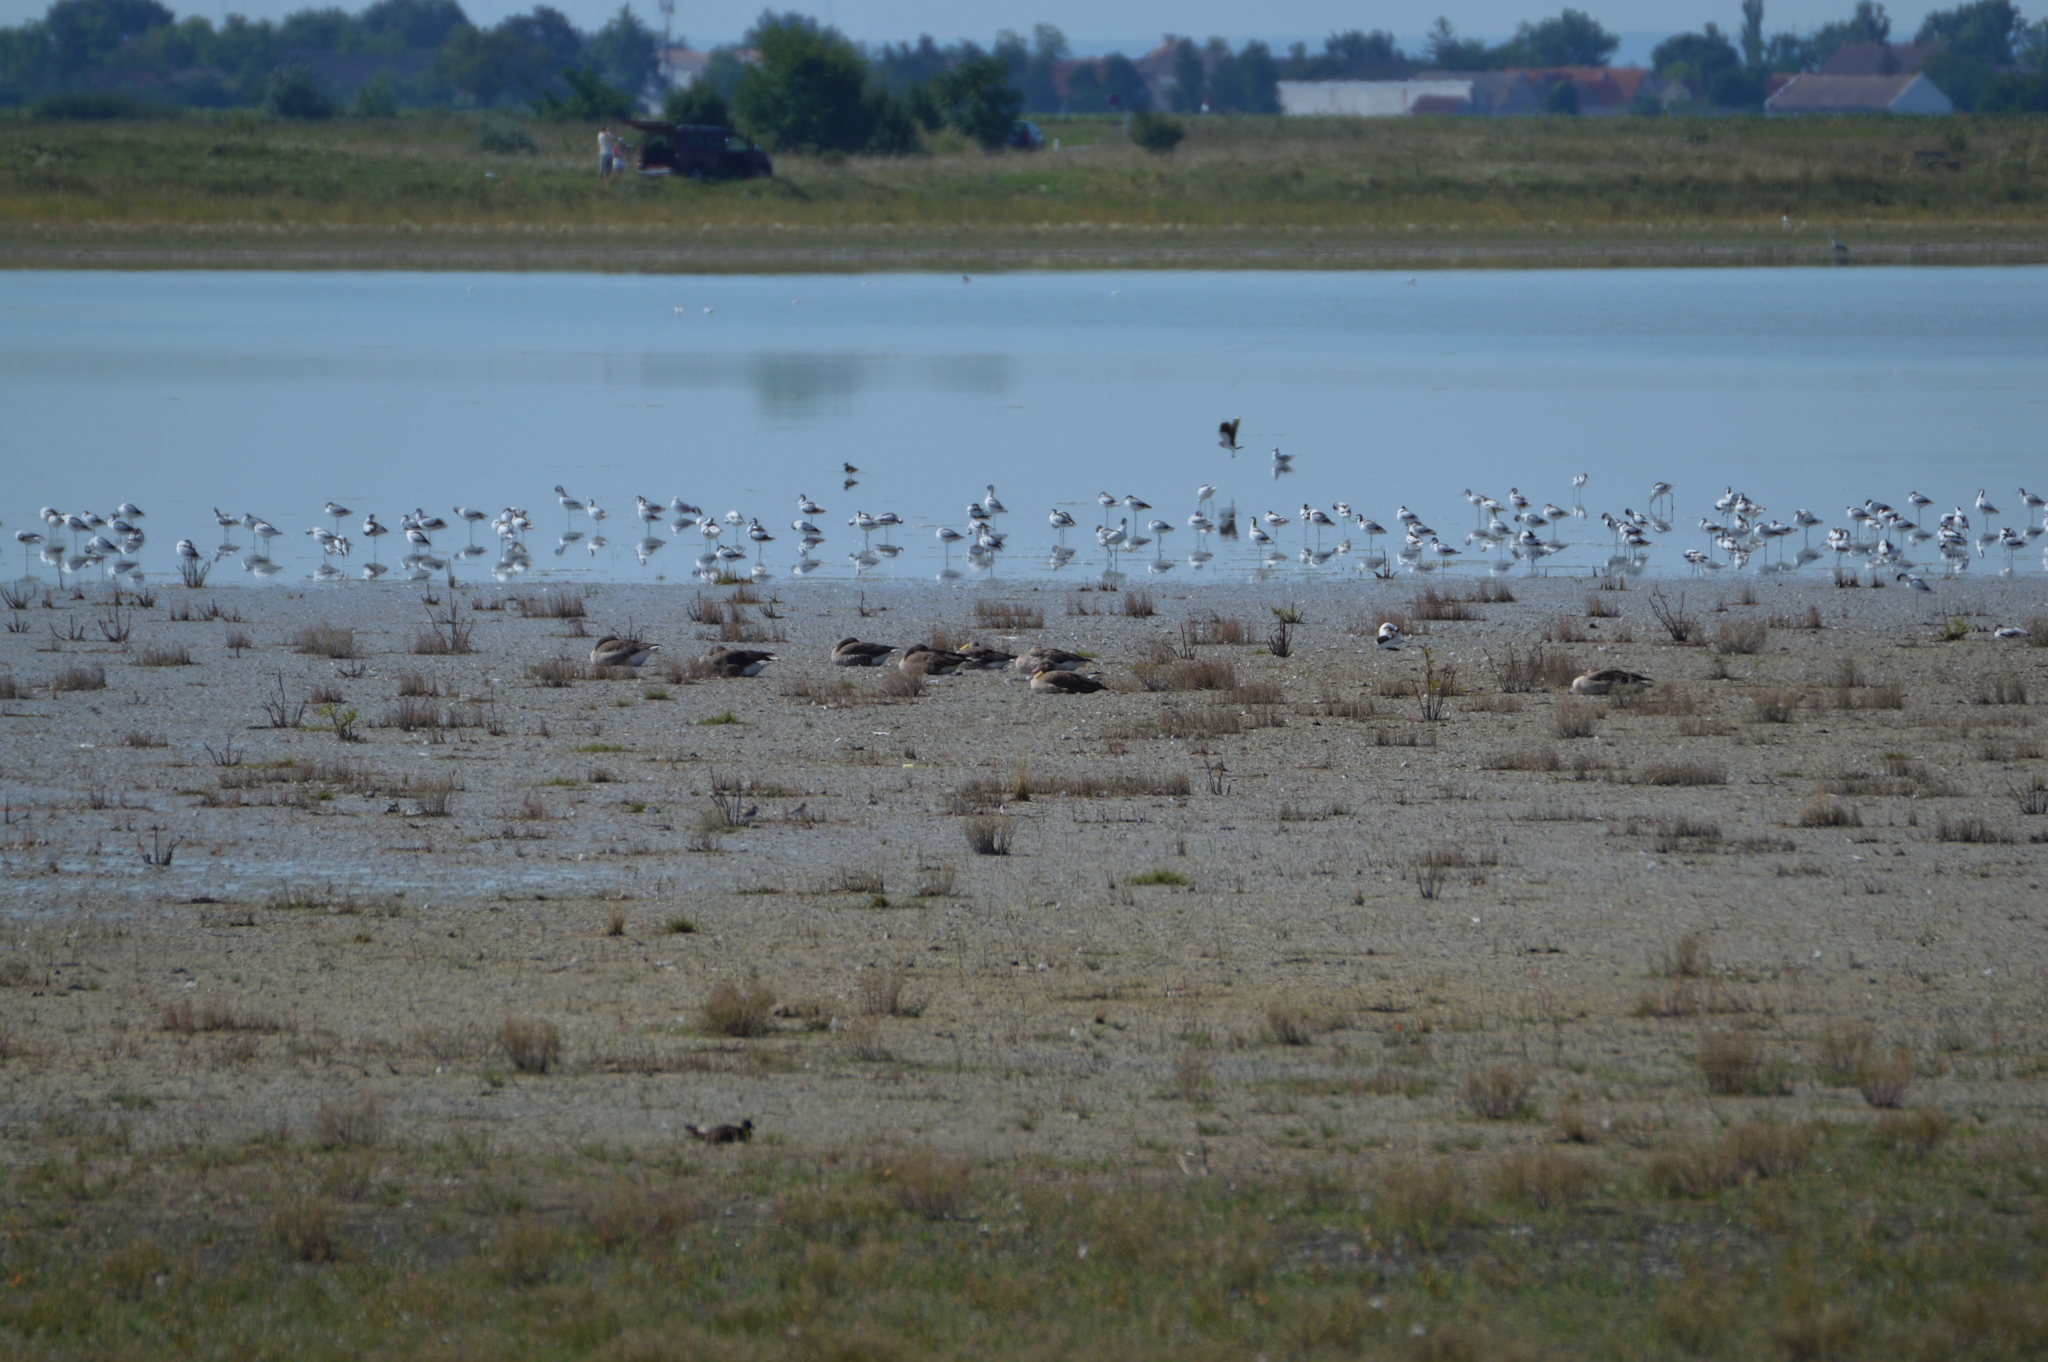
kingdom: Animalia
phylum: Chordata
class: Aves
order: Anseriformes
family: Anatidae
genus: Anser
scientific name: Anser anser
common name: Greylag goose
